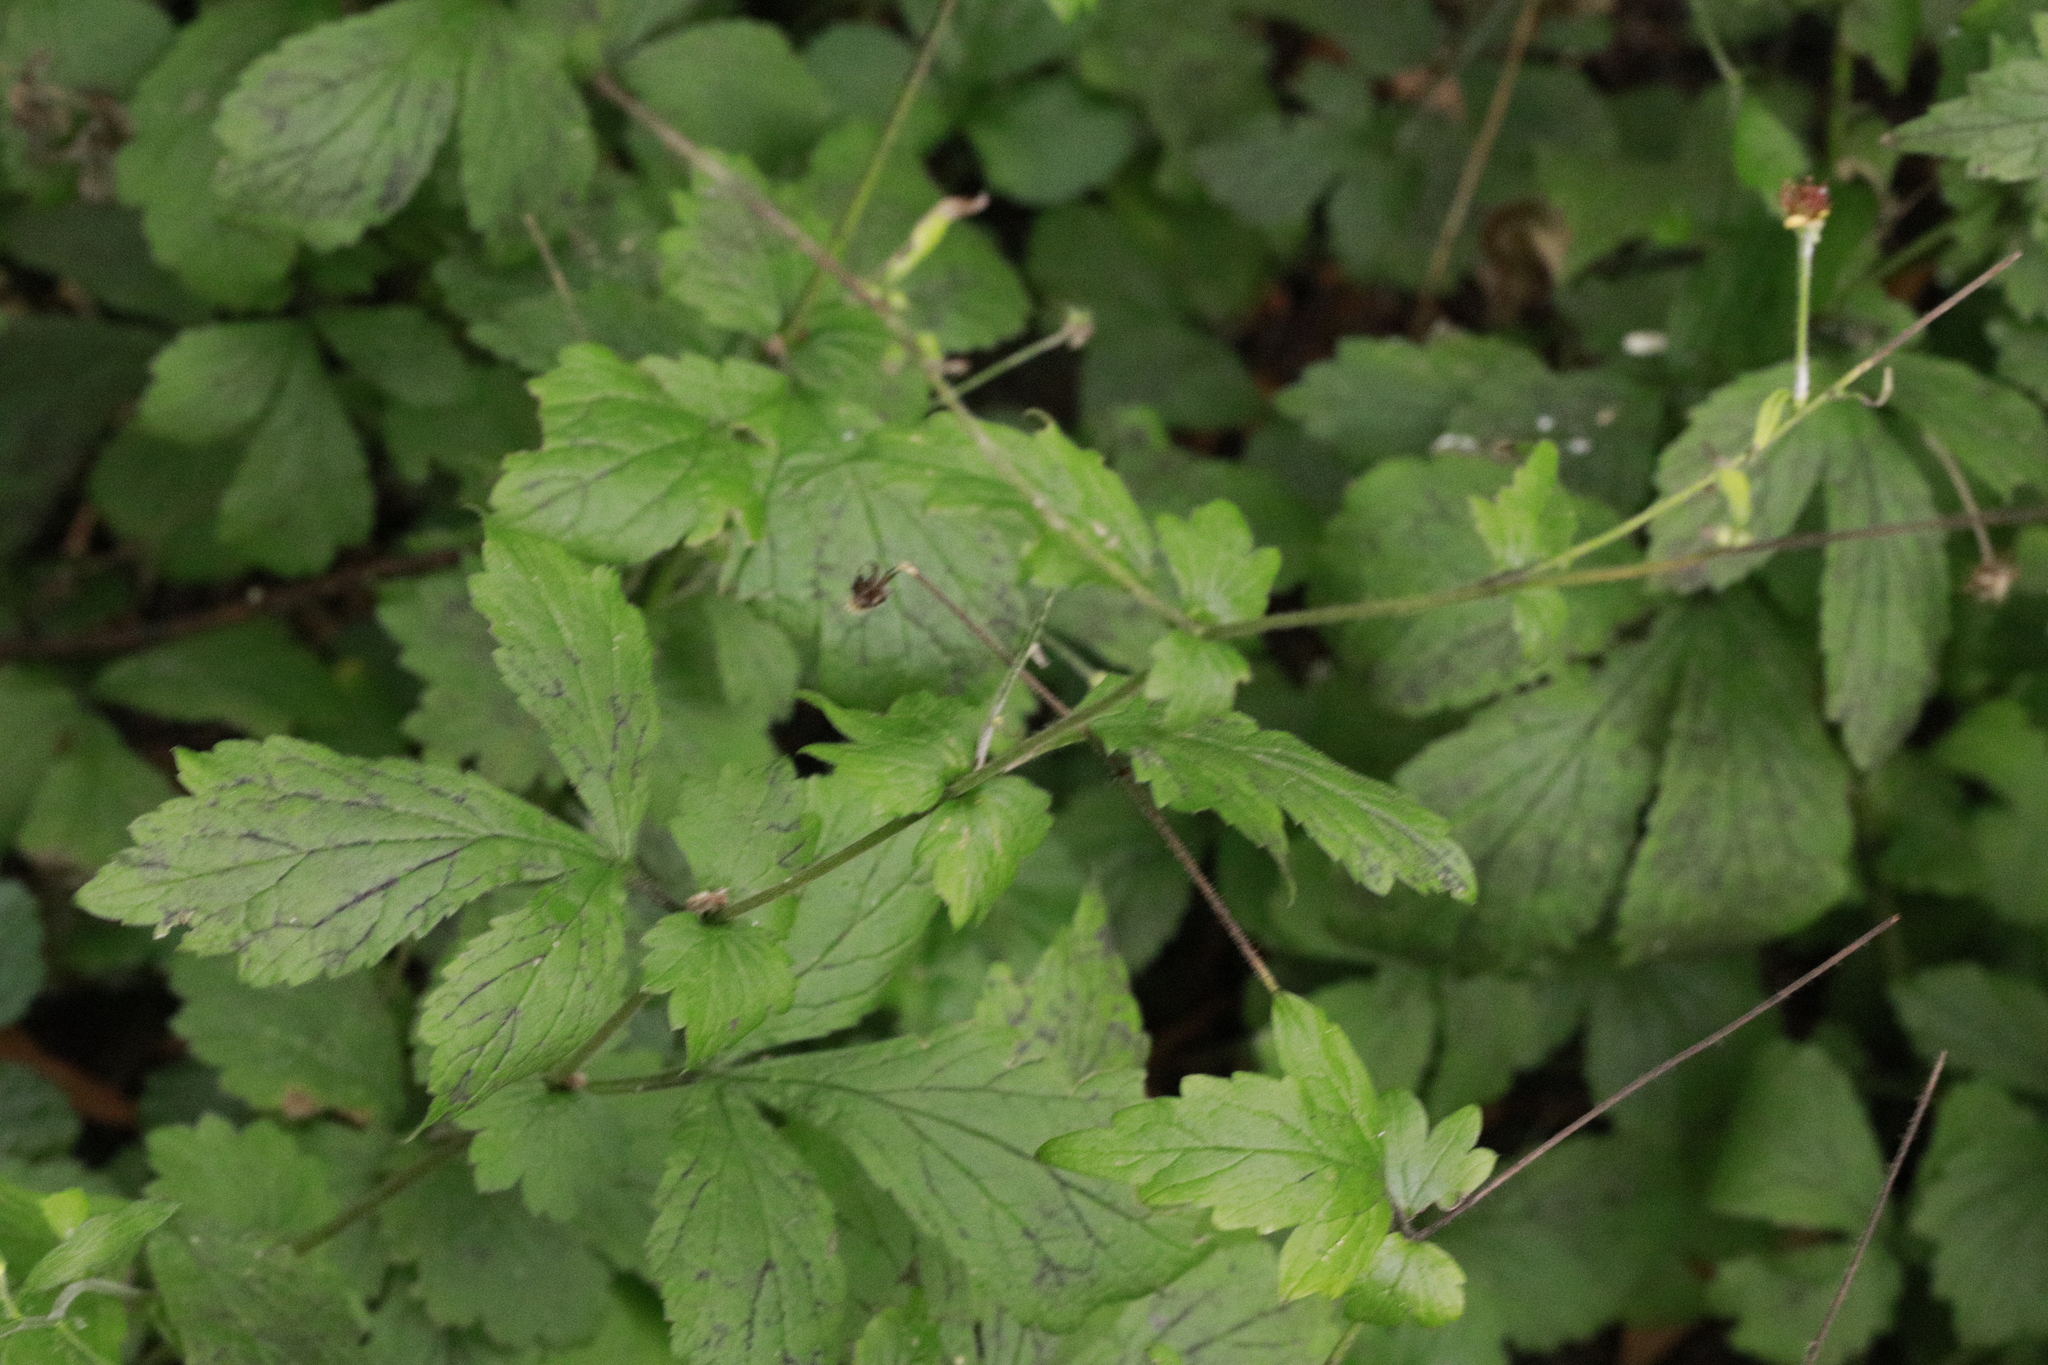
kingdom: Plantae
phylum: Tracheophyta
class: Magnoliopsida
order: Rosales
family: Rosaceae
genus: Geum
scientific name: Geum urbanum
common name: Wood avens
